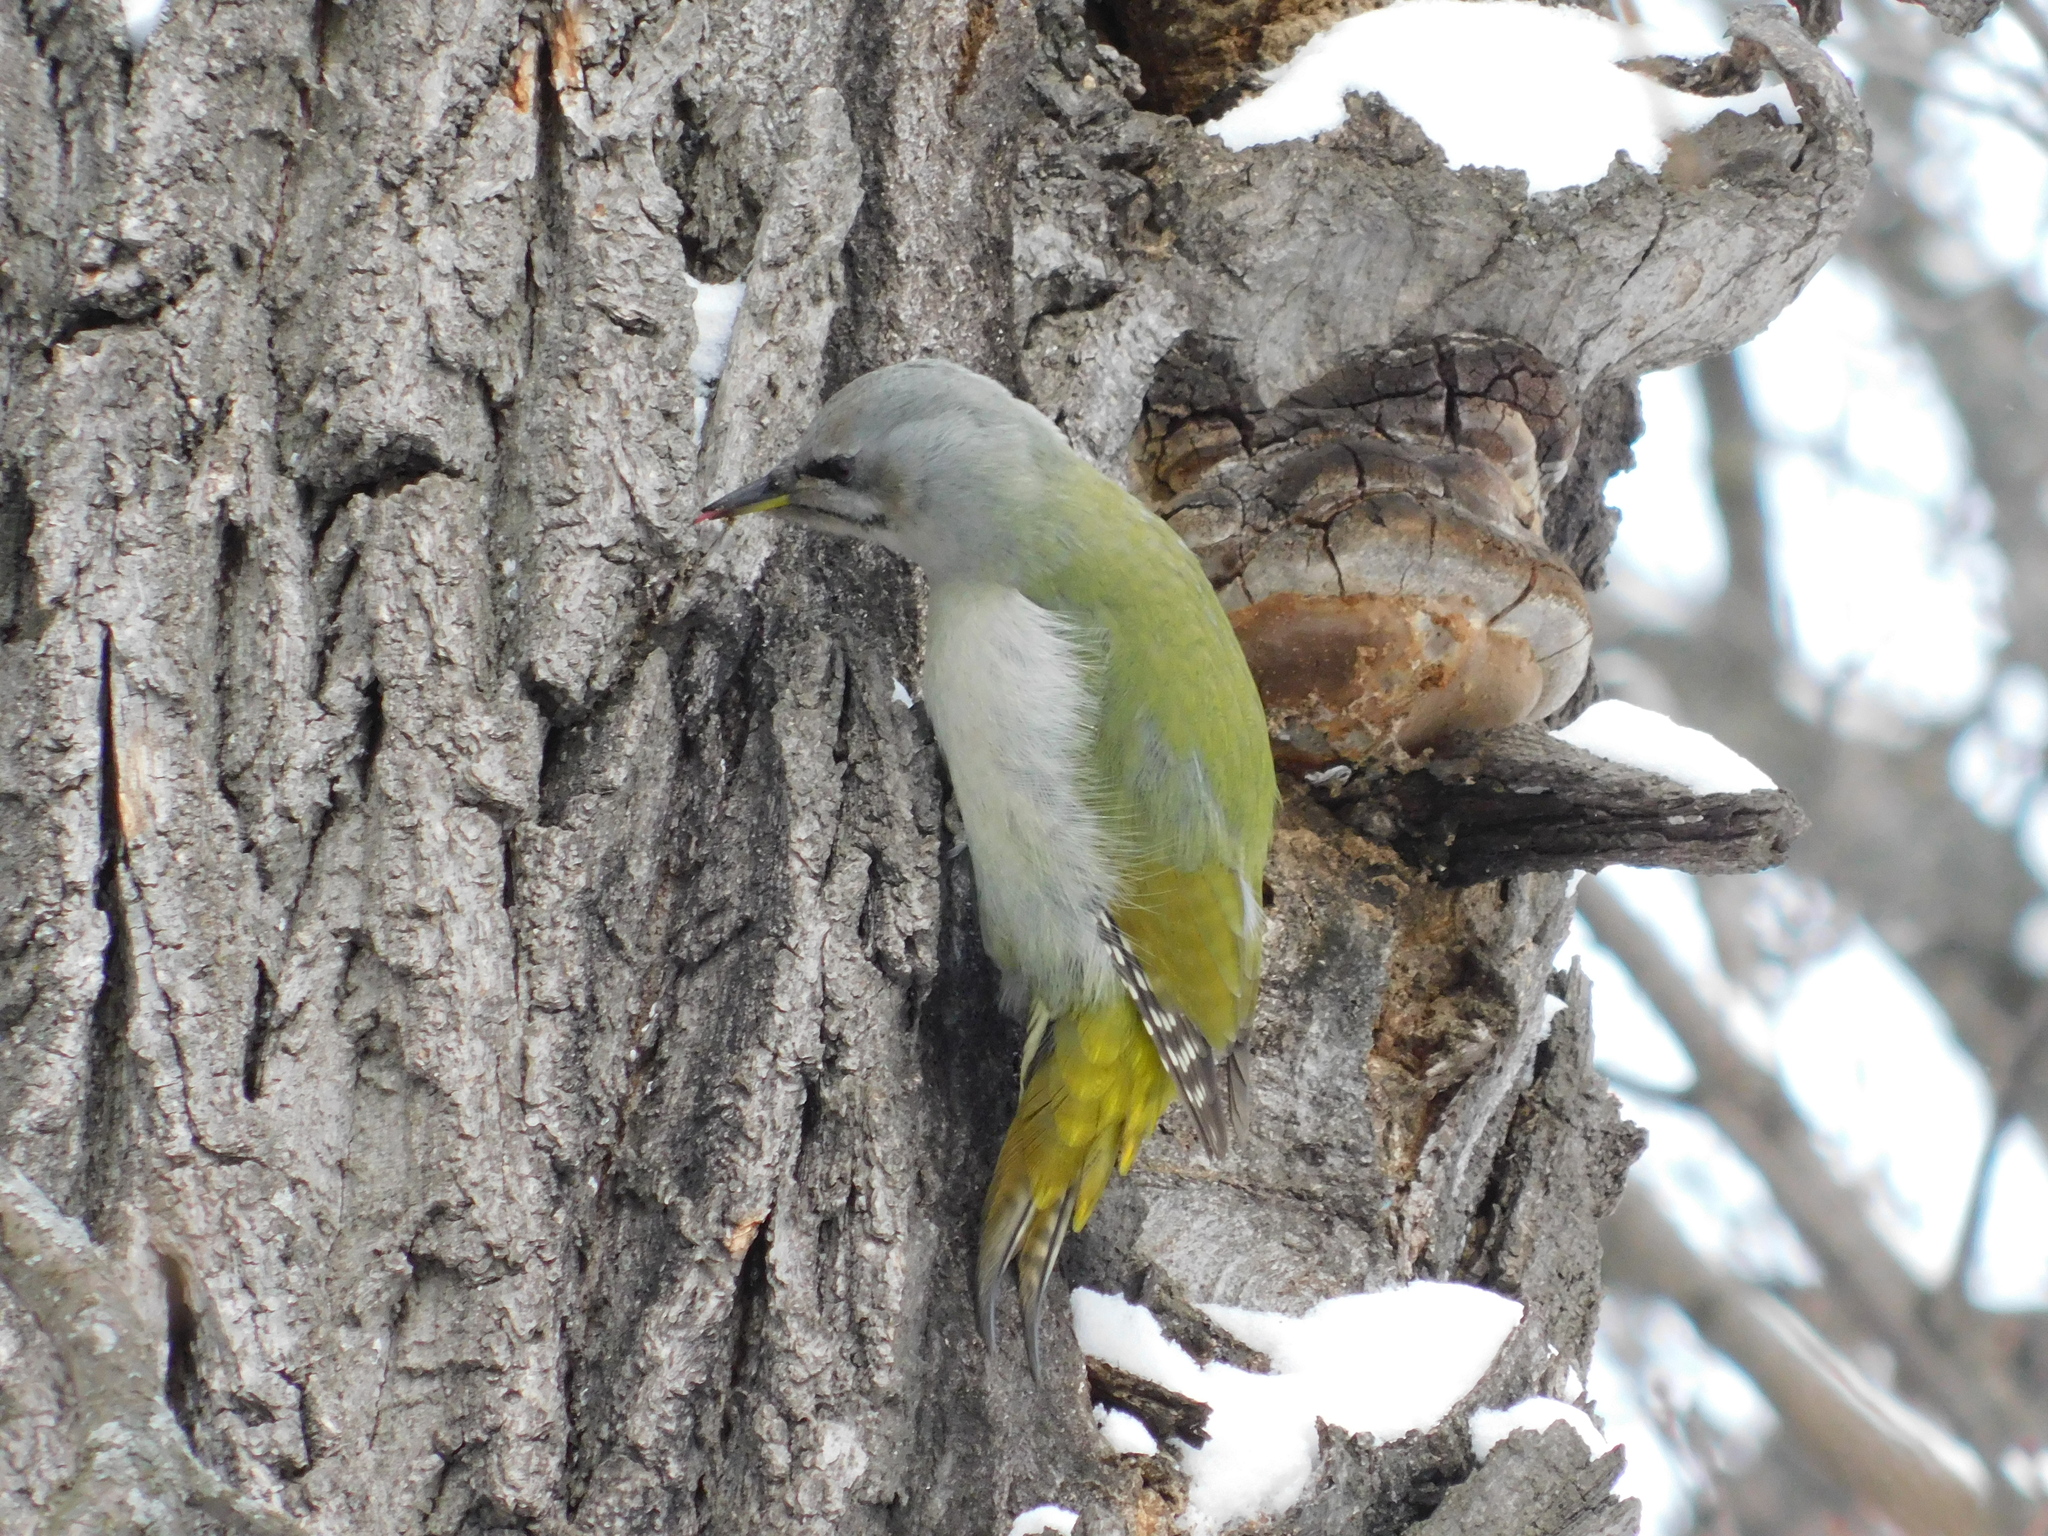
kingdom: Animalia
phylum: Chordata
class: Aves
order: Piciformes
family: Picidae
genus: Picus
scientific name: Picus canus
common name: Grey-headed woodpecker
